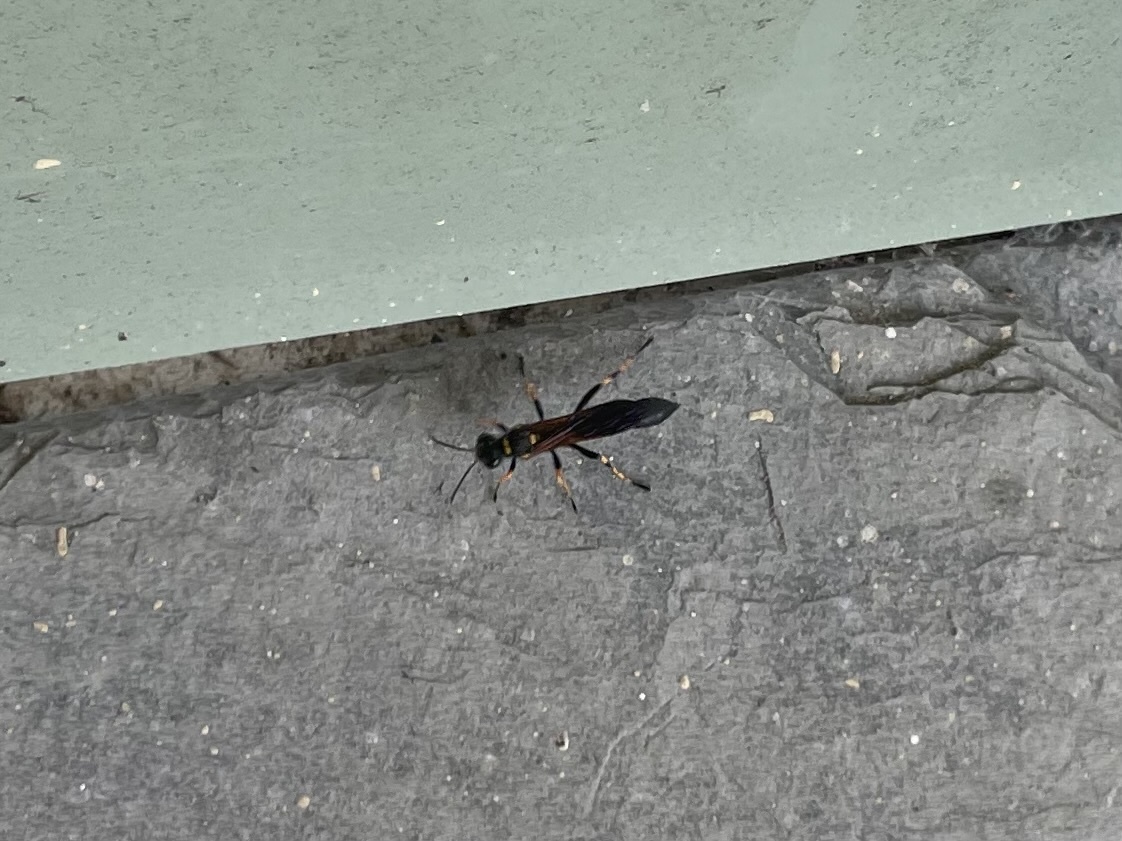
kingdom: Animalia
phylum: Arthropoda
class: Insecta
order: Hymenoptera
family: Sphecidae
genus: Sceliphron
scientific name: Sceliphron caementarium
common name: Mud dauber
